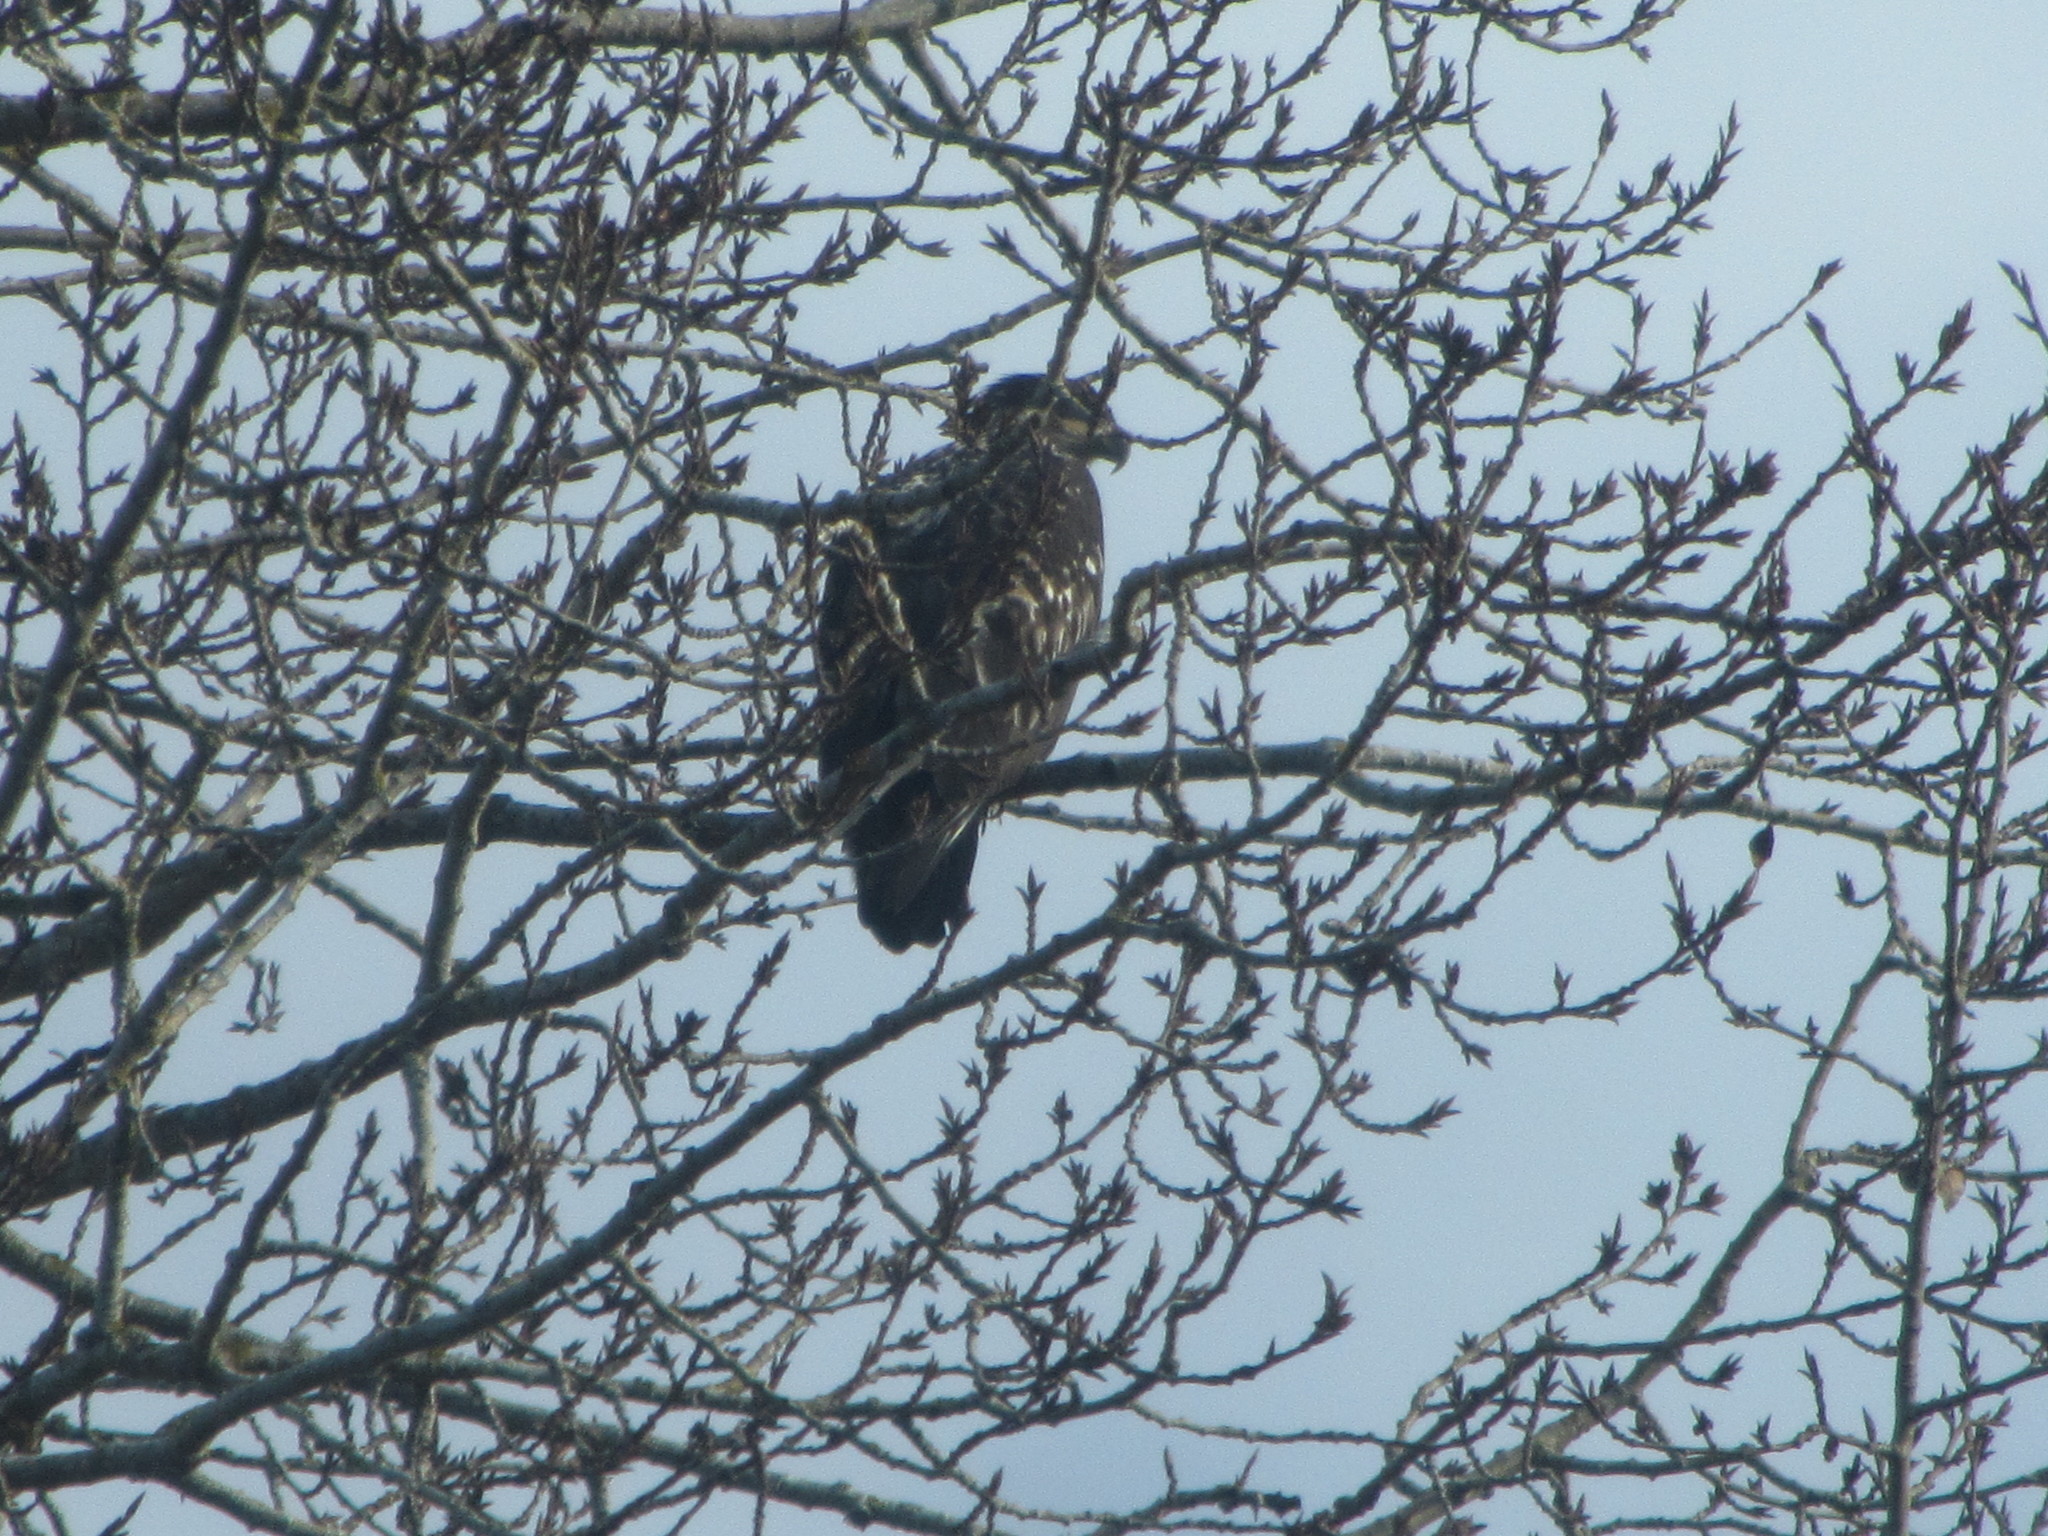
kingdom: Animalia
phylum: Chordata
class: Aves
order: Accipitriformes
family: Accipitridae
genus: Haliaeetus
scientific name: Haliaeetus leucocephalus
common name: Bald eagle
